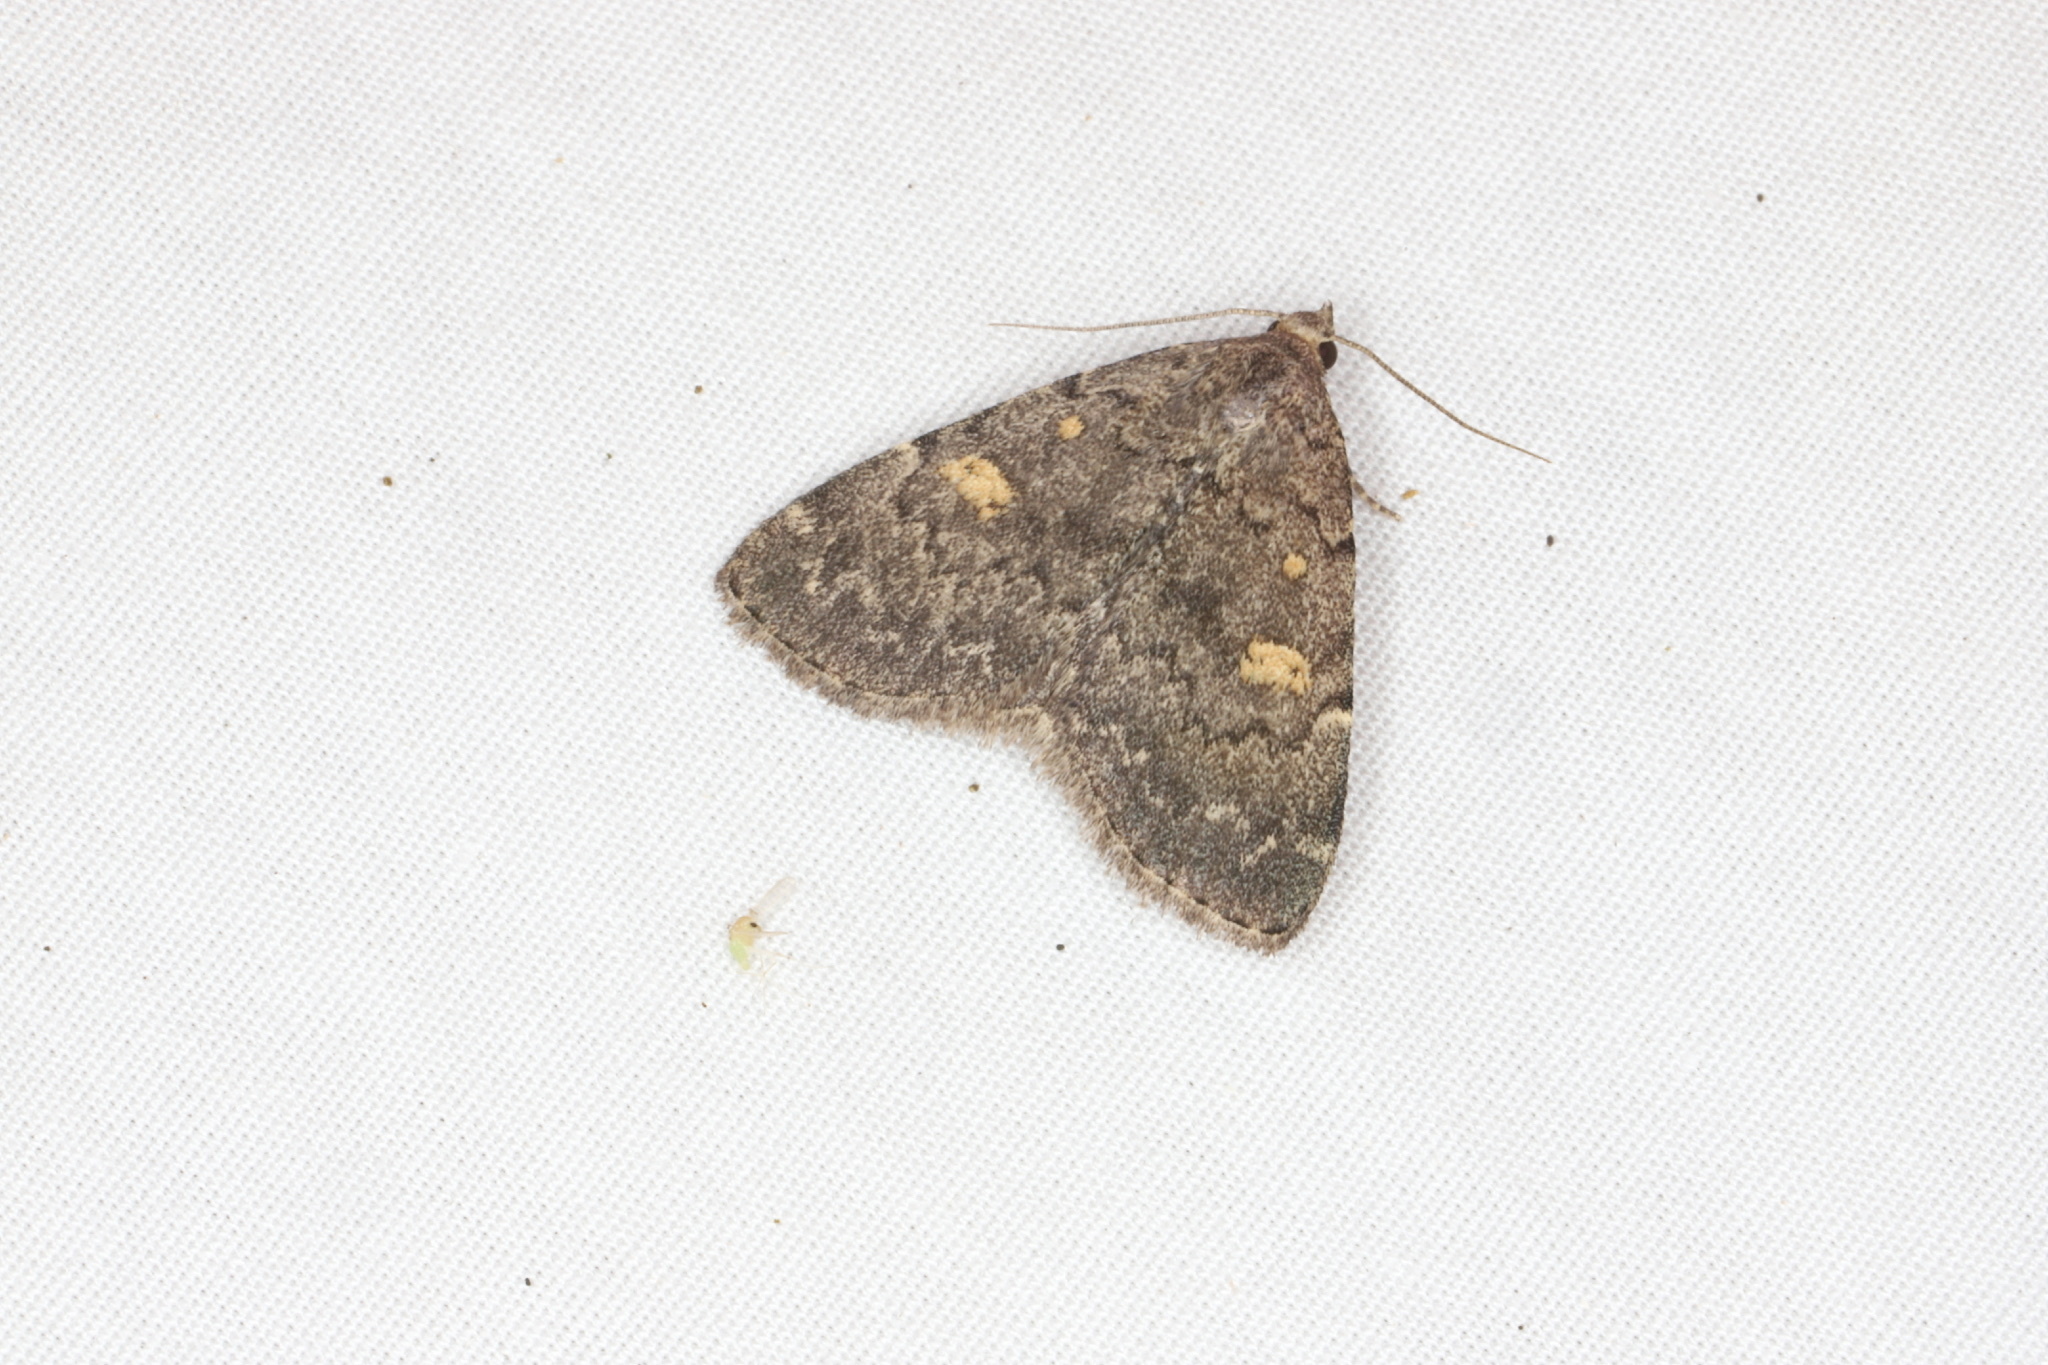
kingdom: Animalia
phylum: Arthropoda
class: Insecta
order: Lepidoptera
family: Erebidae
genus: Idia
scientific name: Idia aemula
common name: Common idia moth
